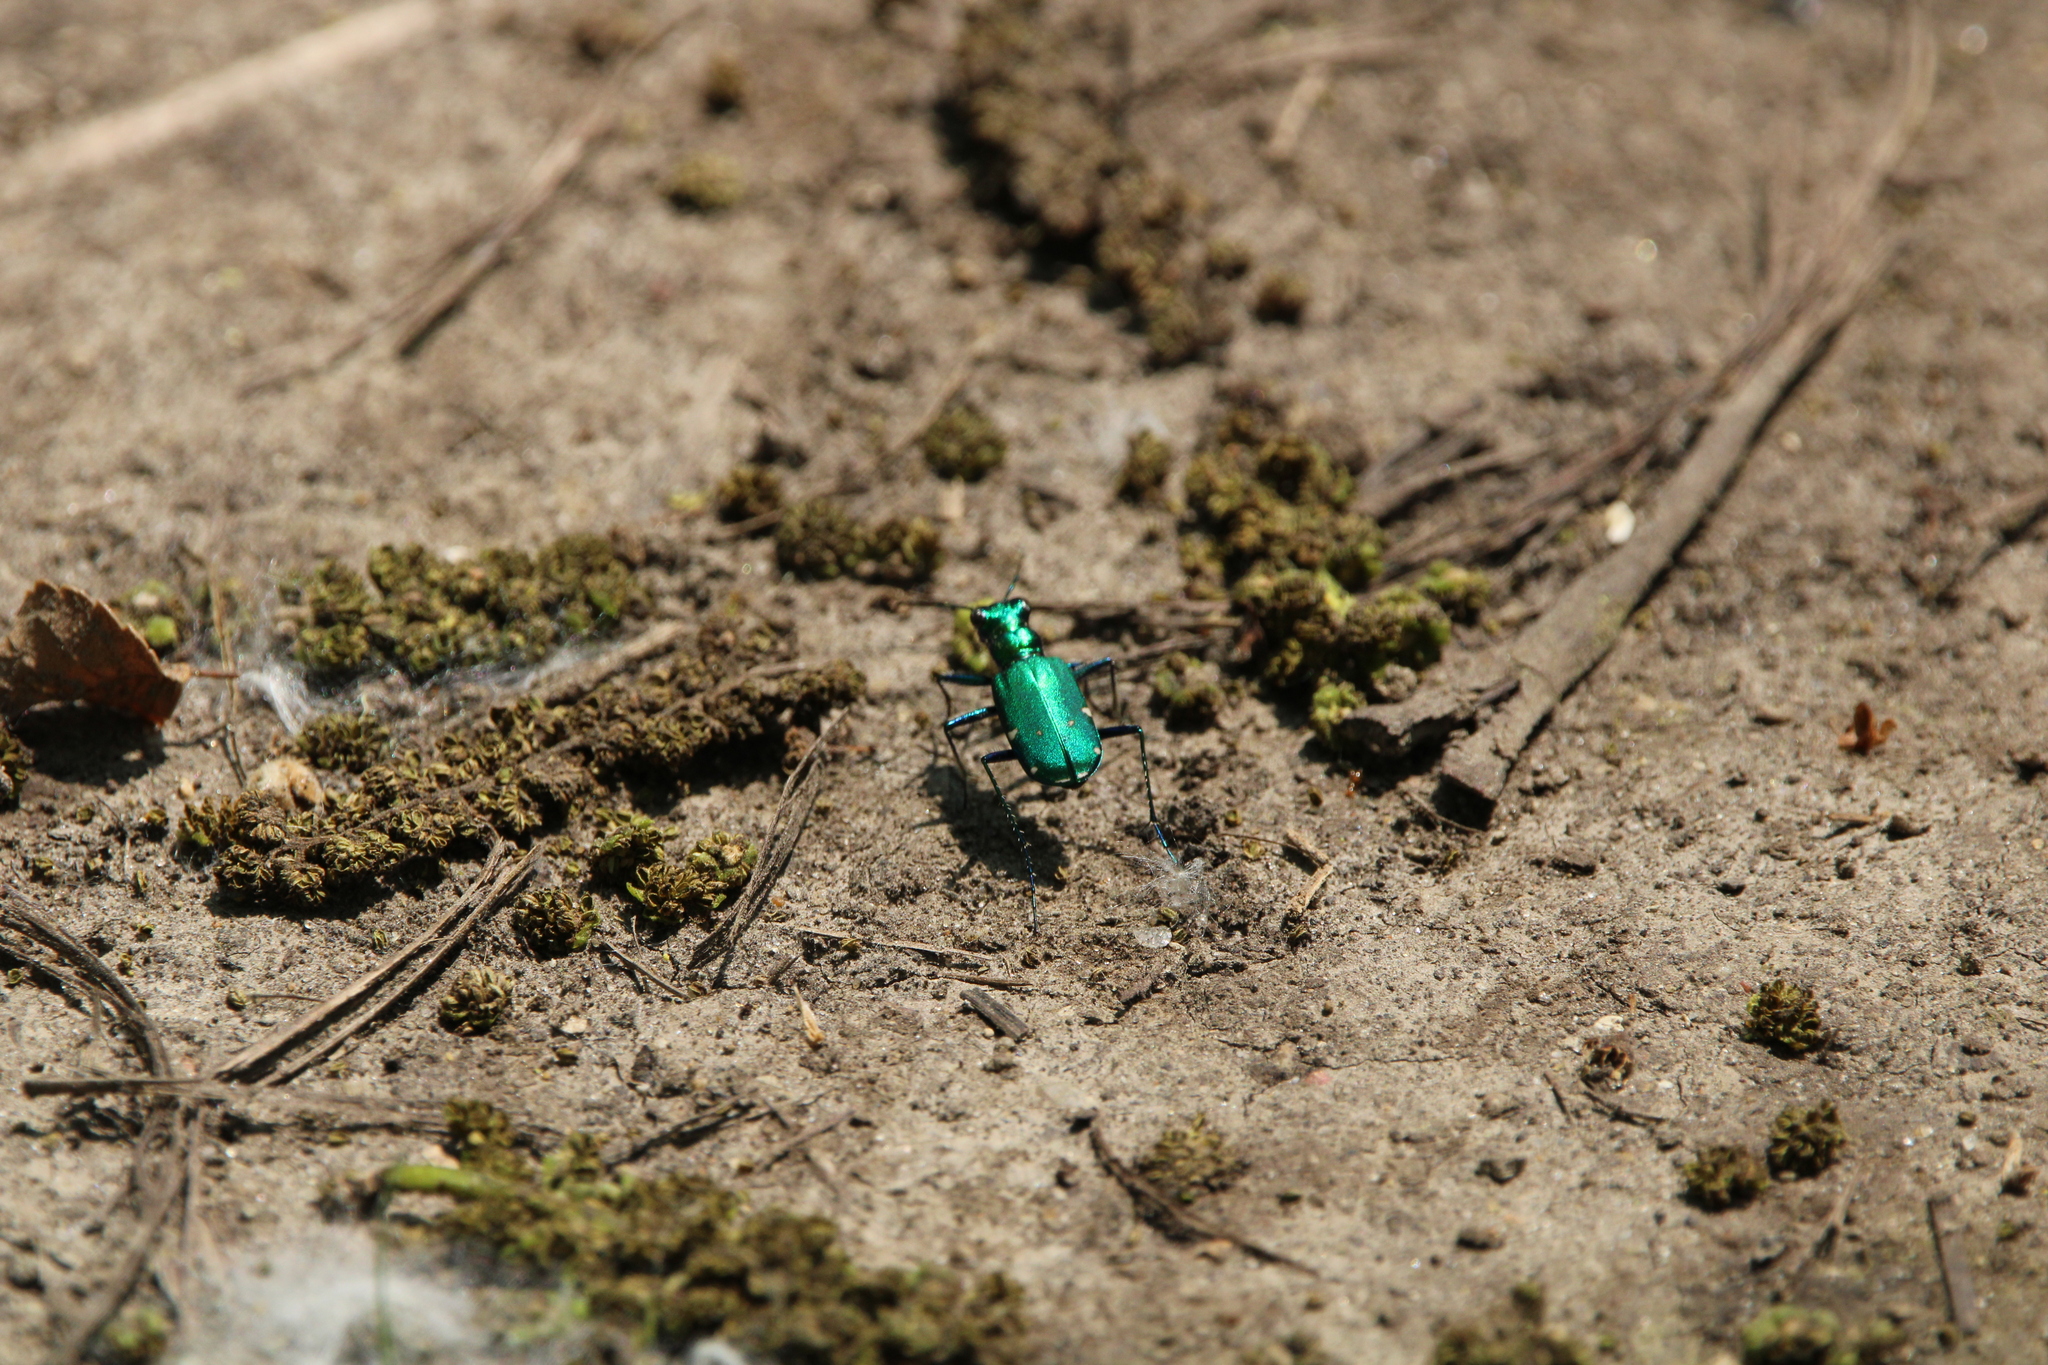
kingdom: Animalia
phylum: Arthropoda
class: Insecta
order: Coleoptera
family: Carabidae
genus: Cicindela
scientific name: Cicindela sexguttata
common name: Six-spotted tiger beetle
